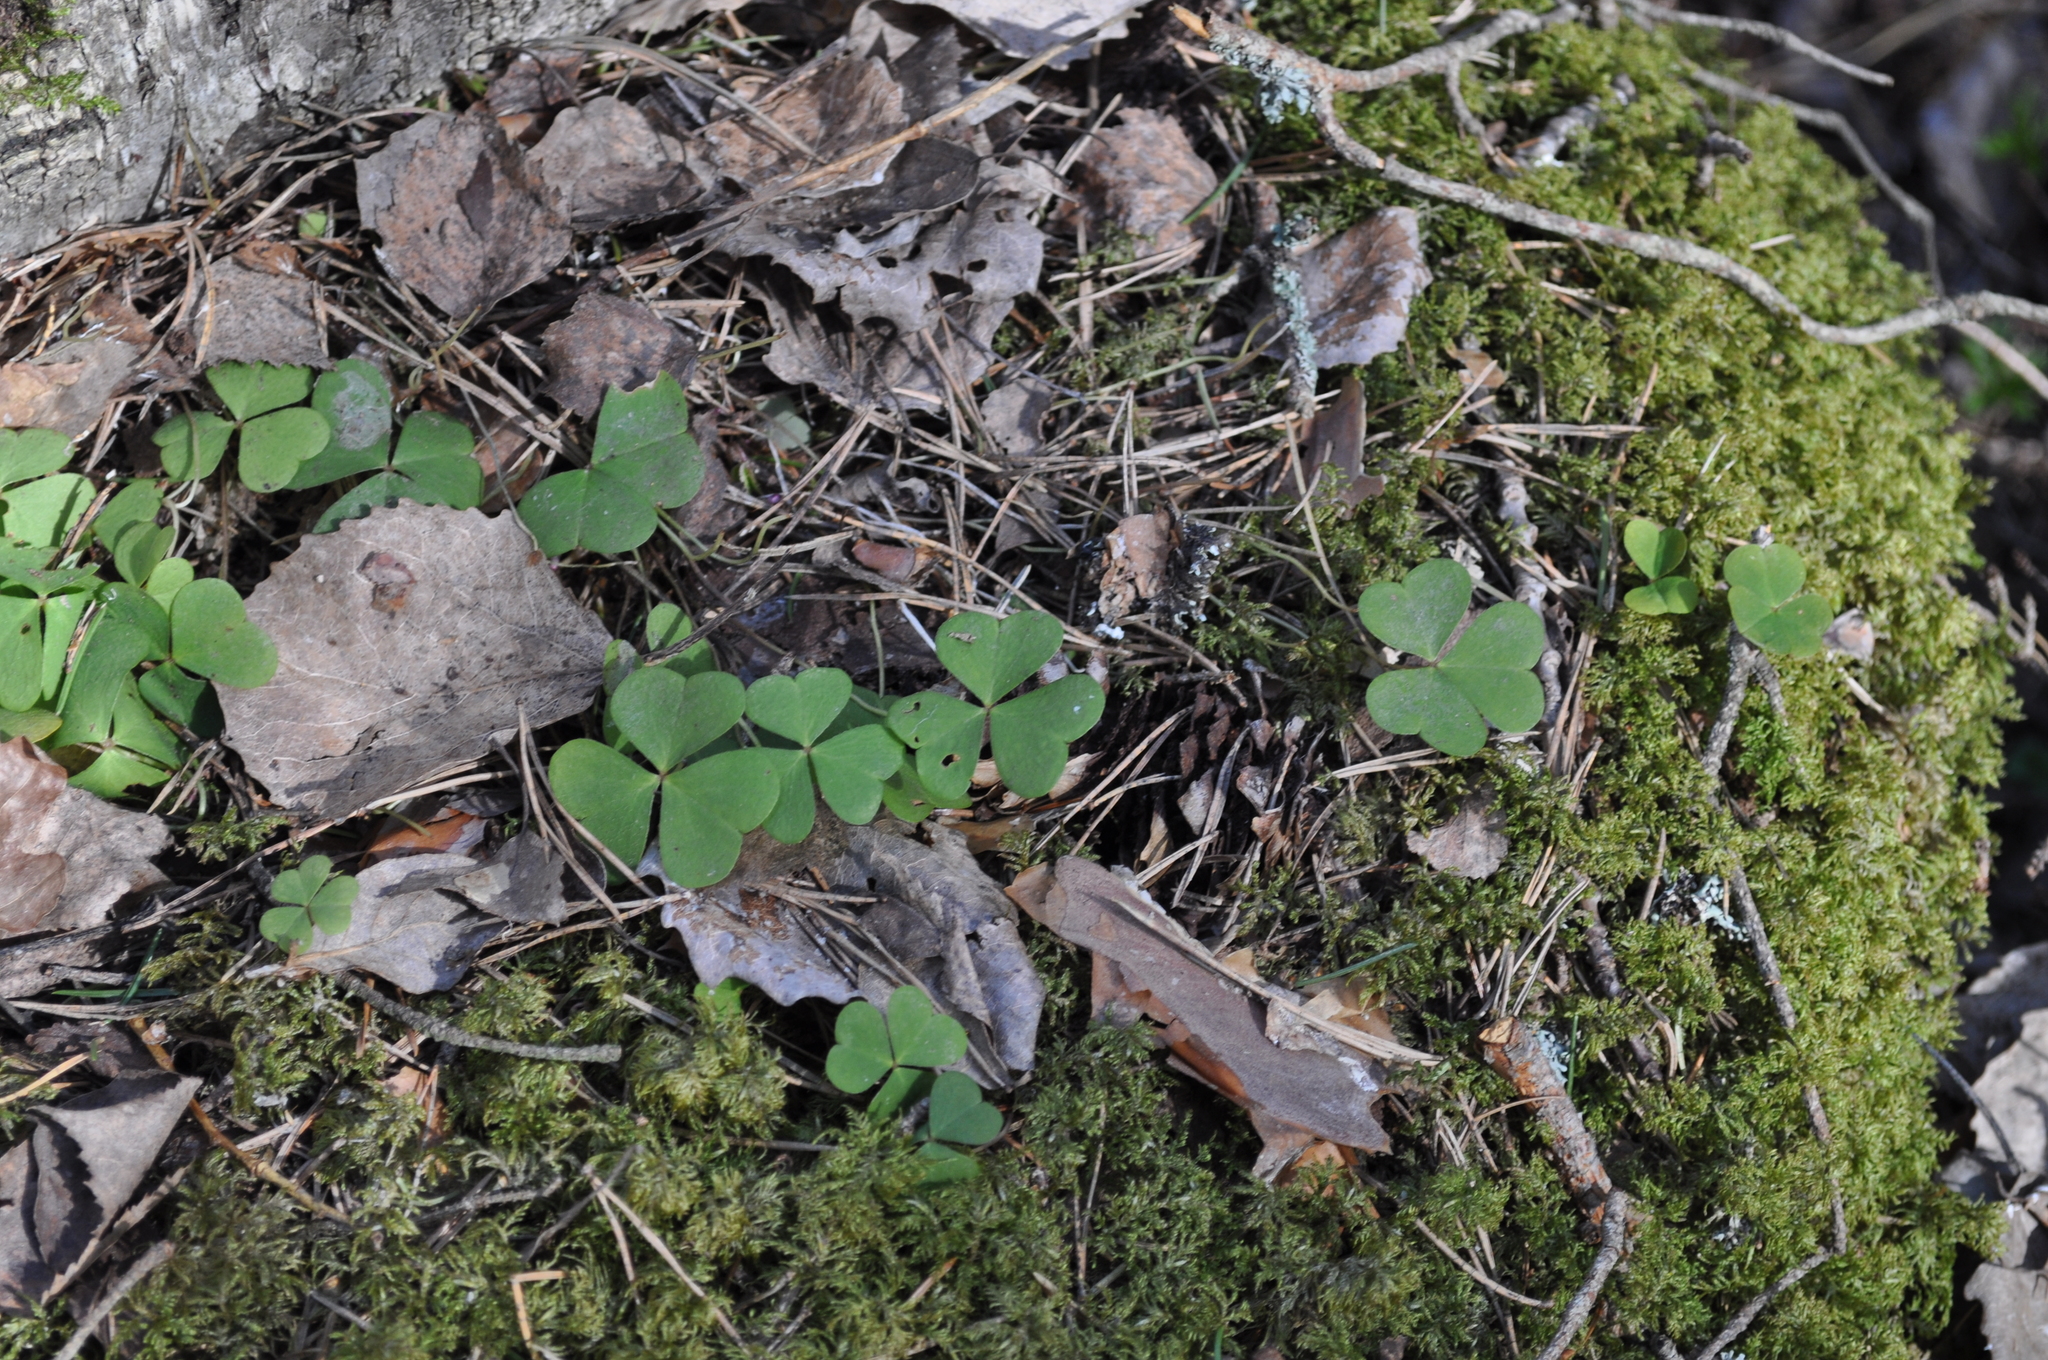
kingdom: Plantae
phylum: Tracheophyta
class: Magnoliopsida
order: Oxalidales
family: Oxalidaceae
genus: Oxalis
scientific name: Oxalis acetosella
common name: Wood-sorrel
